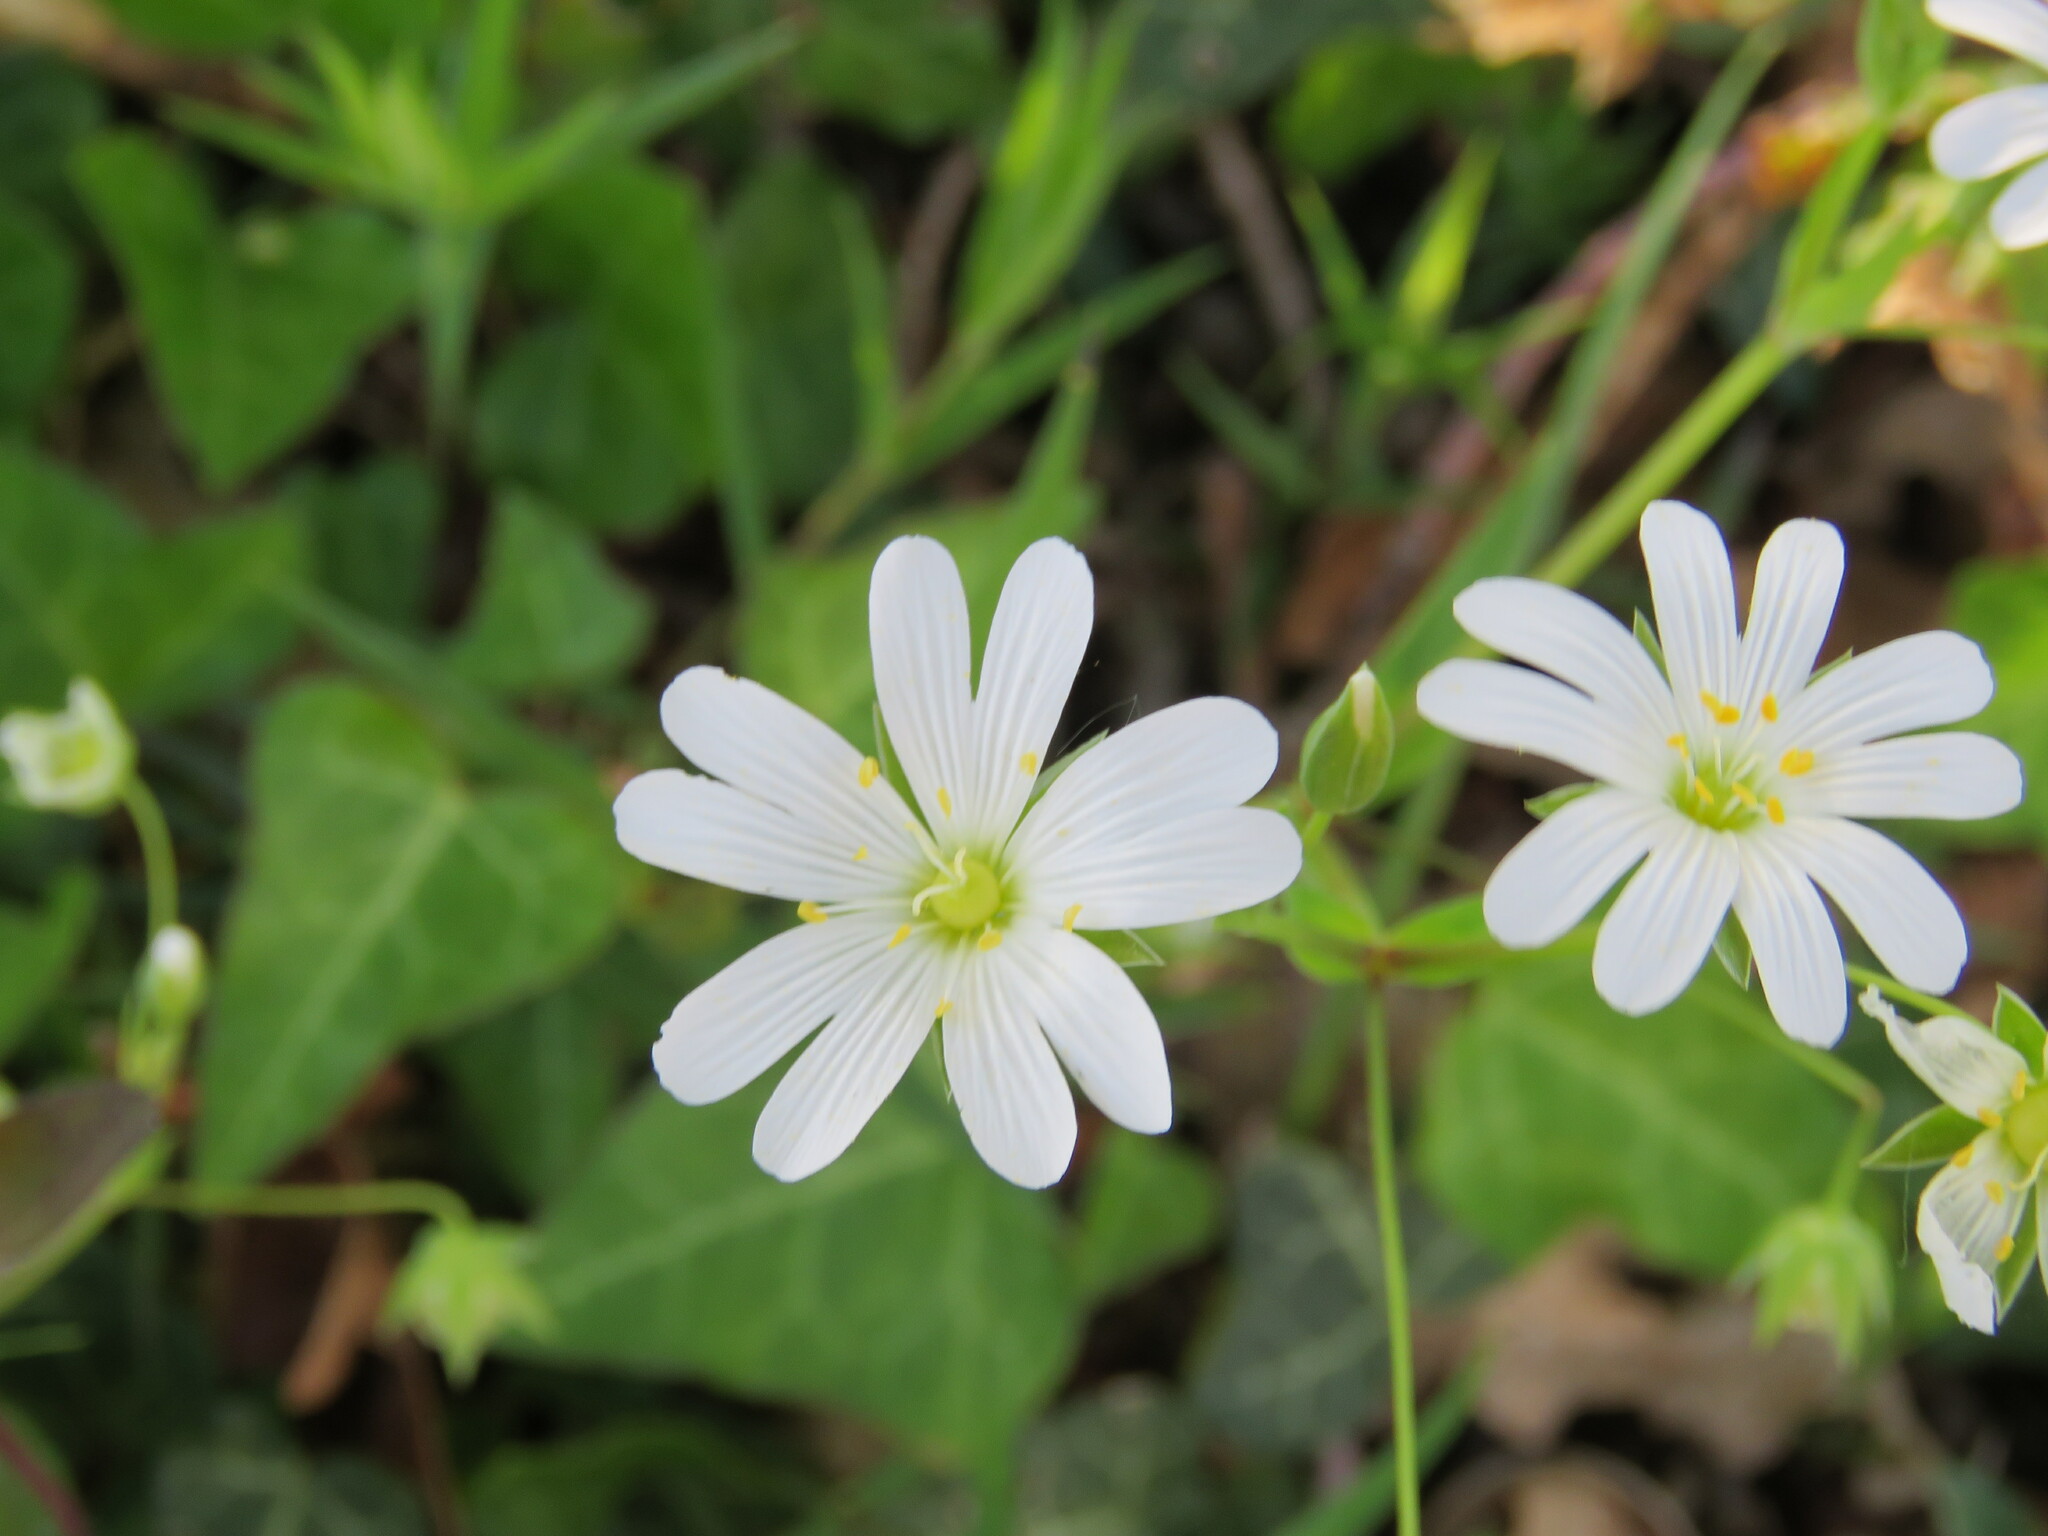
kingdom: Plantae
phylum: Tracheophyta
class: Magnoliopsida
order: Caryophyllales
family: Caryophyllaceae
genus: Rabelera
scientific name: Rabelera holostea
